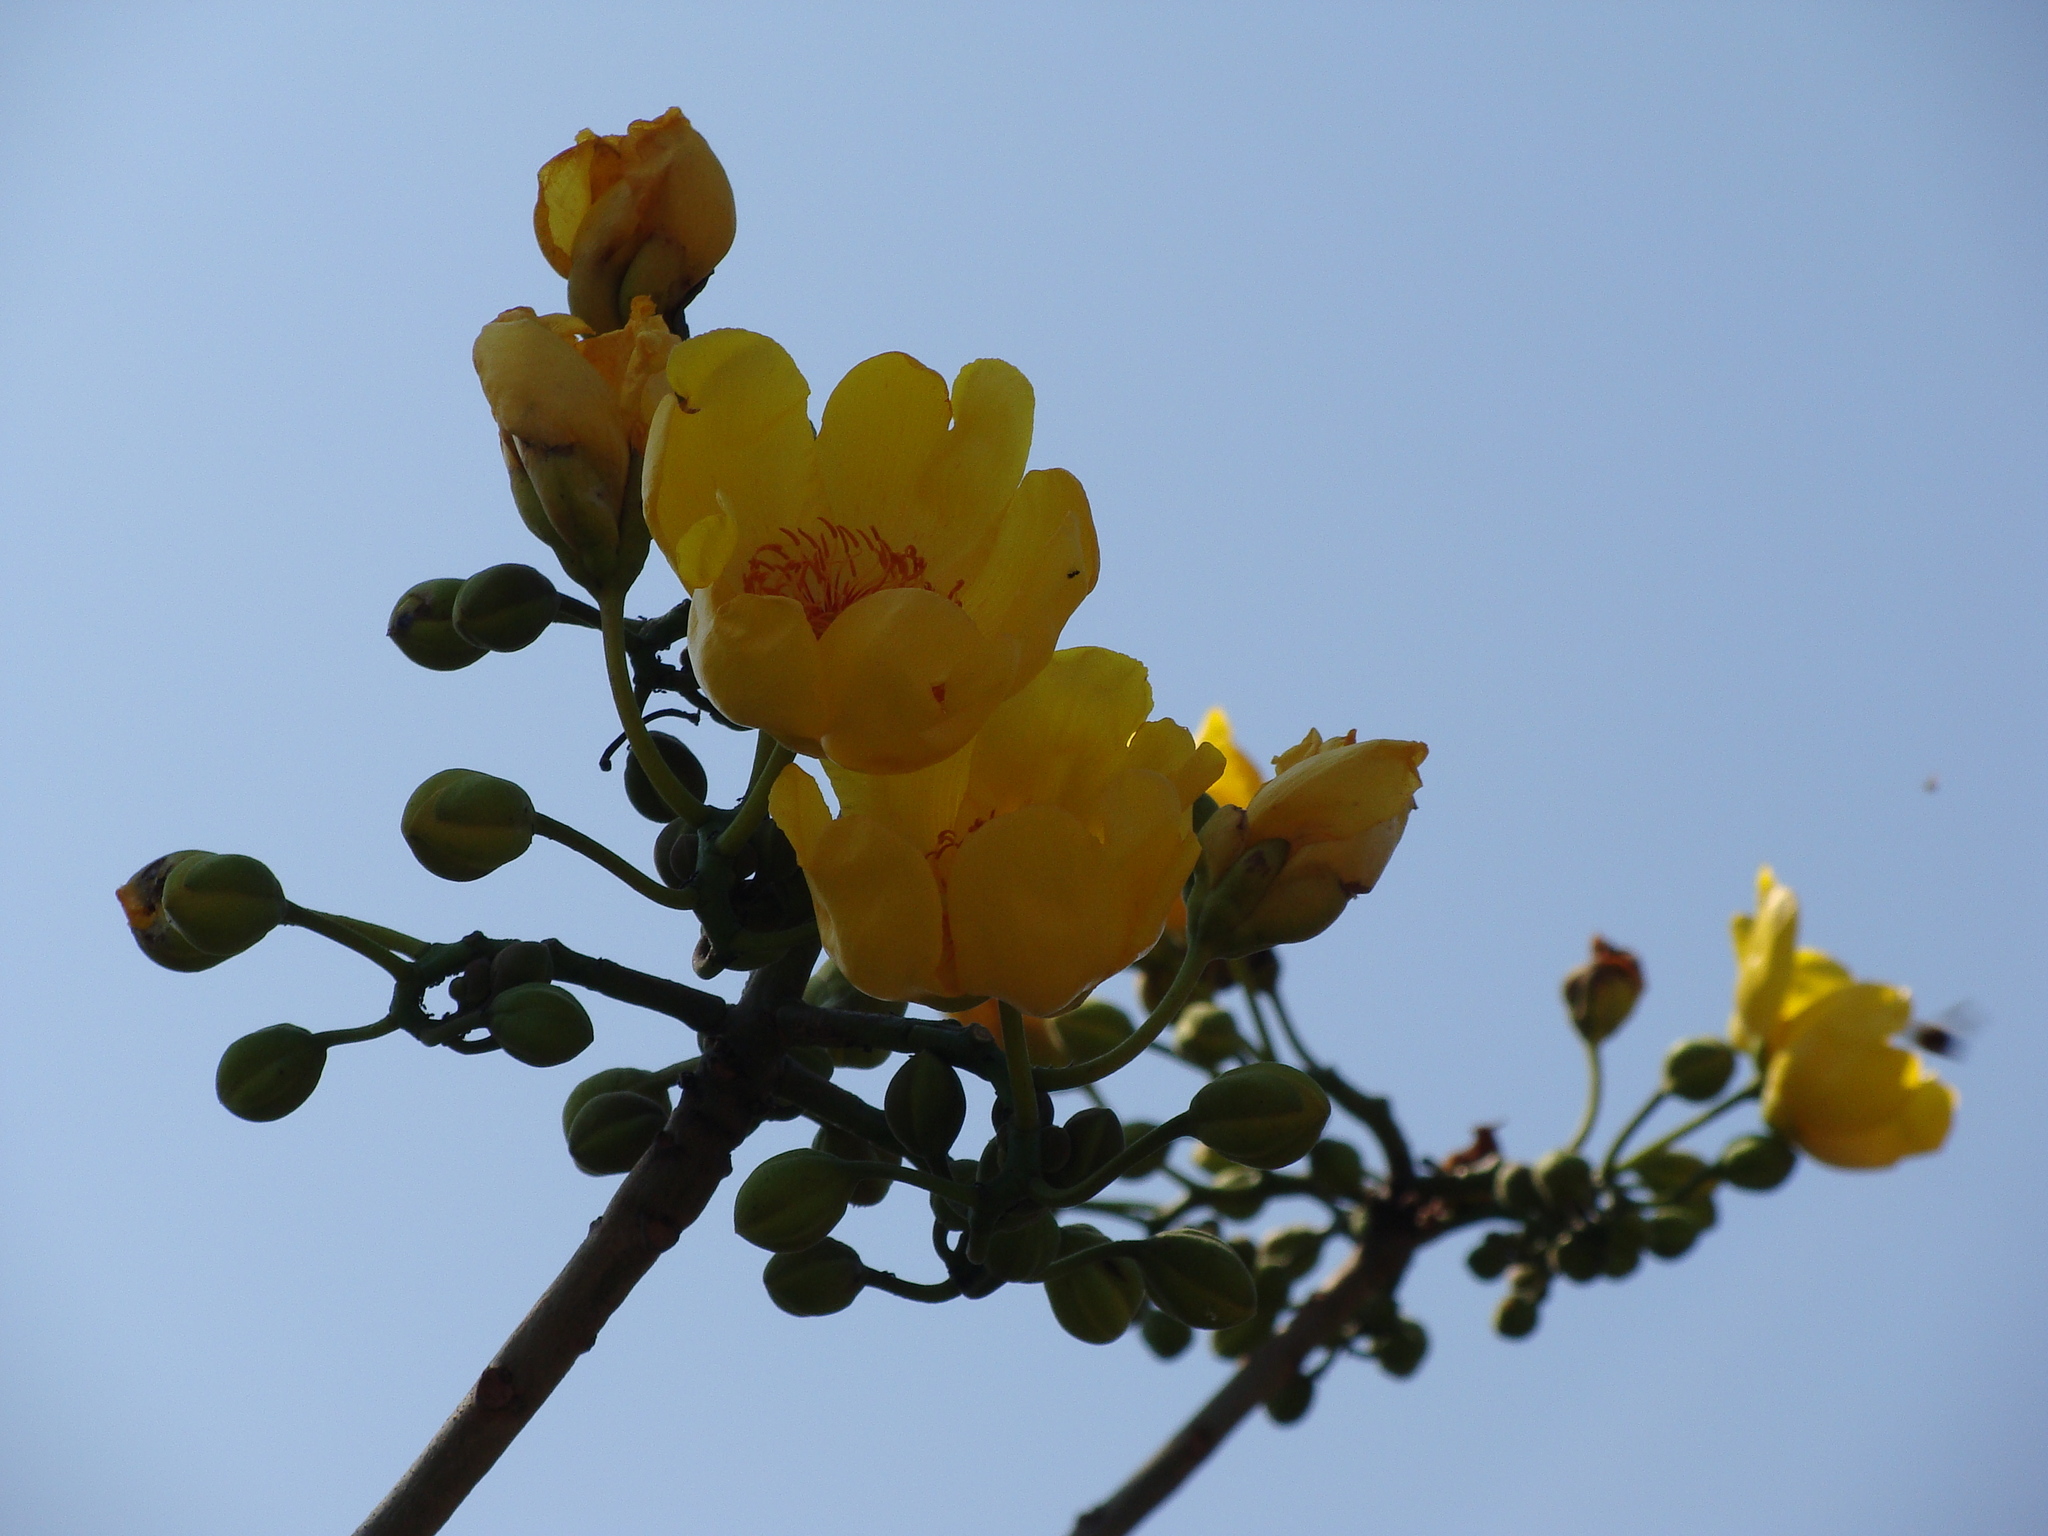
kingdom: Plantae
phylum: Tracheophyta
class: Magnoliopsida
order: Malvales
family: Cochlospermaceae
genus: Cochlospermum
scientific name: Cochlospermum vitifolium
